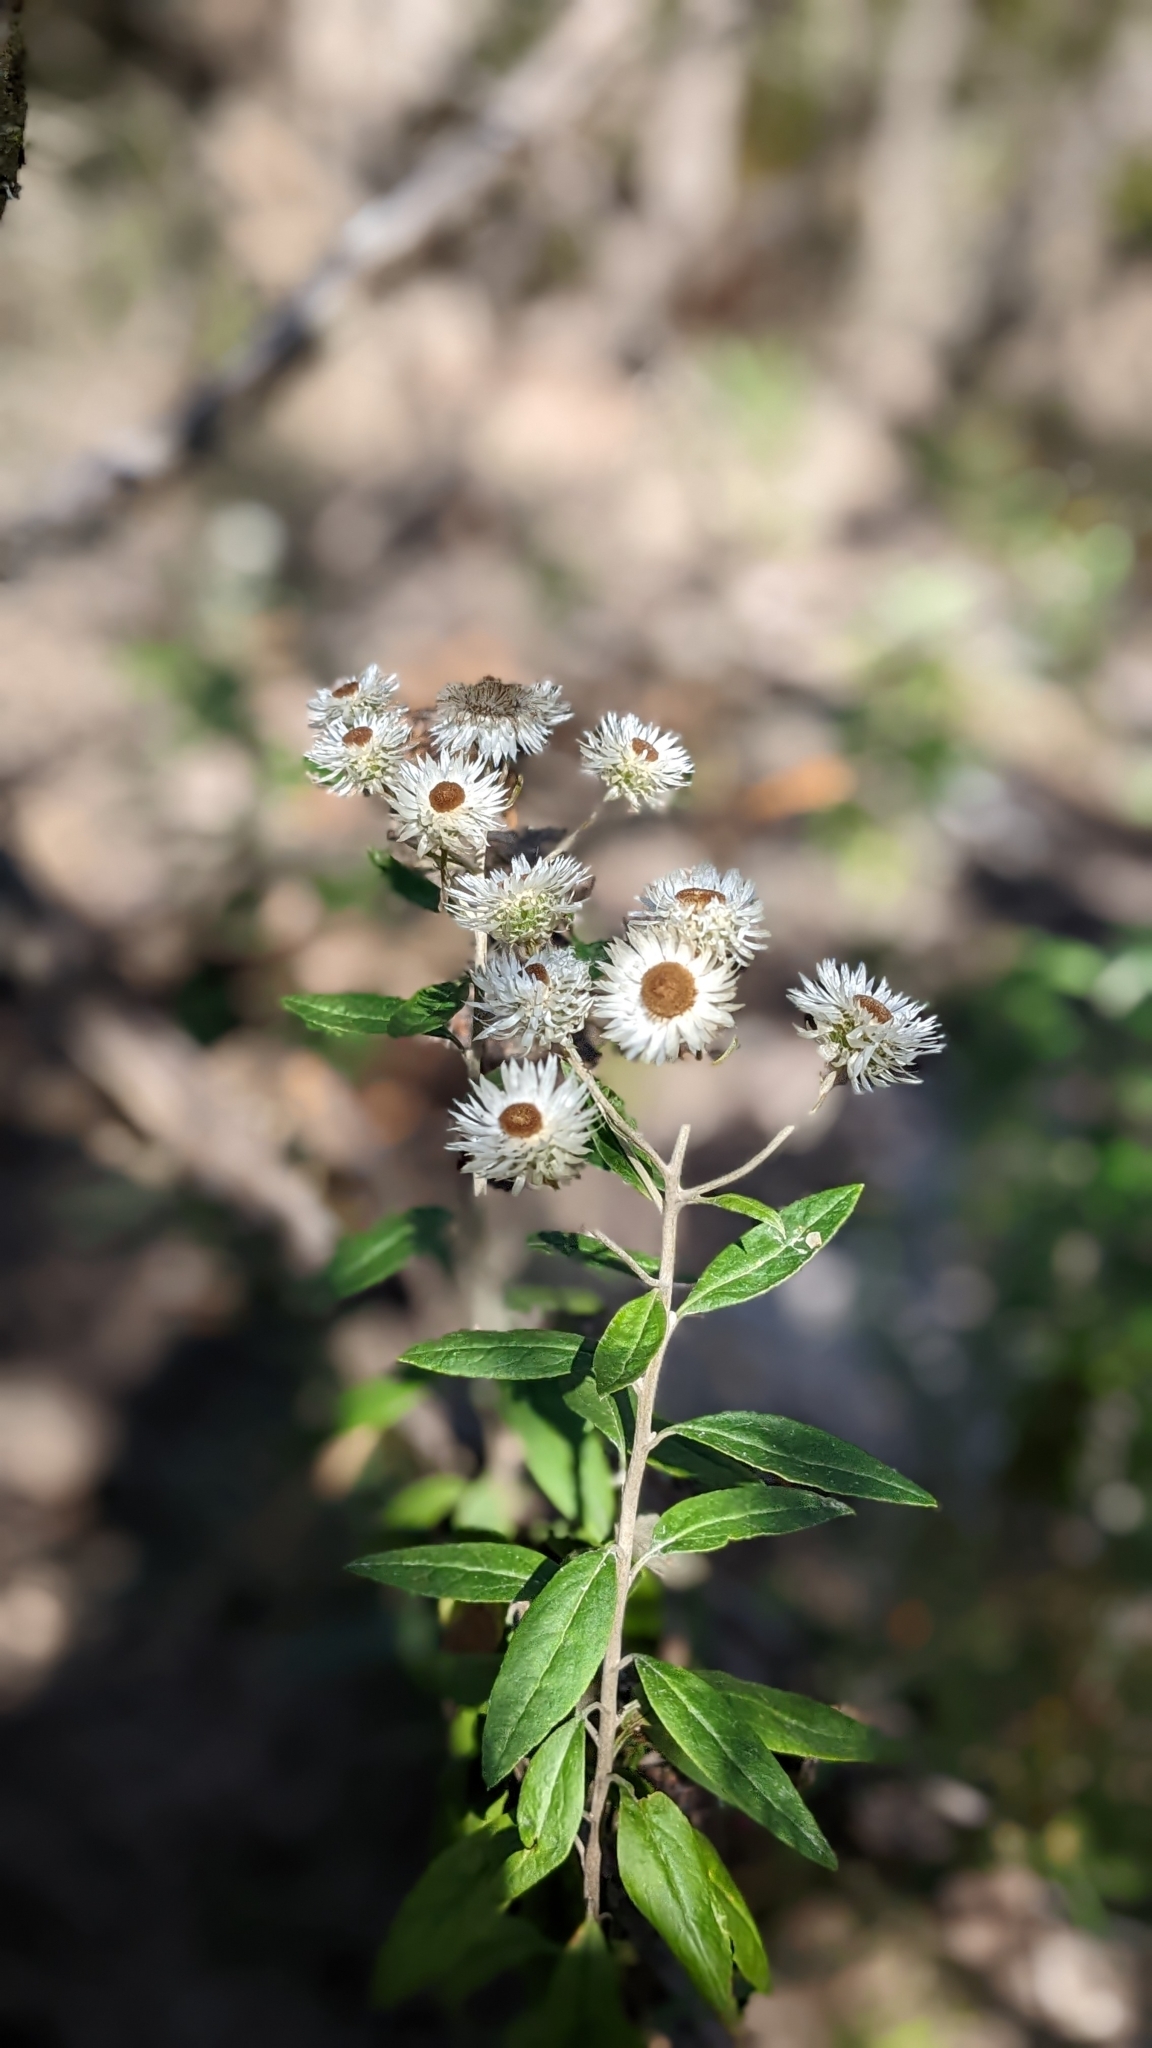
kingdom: Plantae
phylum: Tracheophyta
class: Magnoliopsida
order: Asterales
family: Asteraceae
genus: Leucozoma
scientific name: Leucozoma elatum
